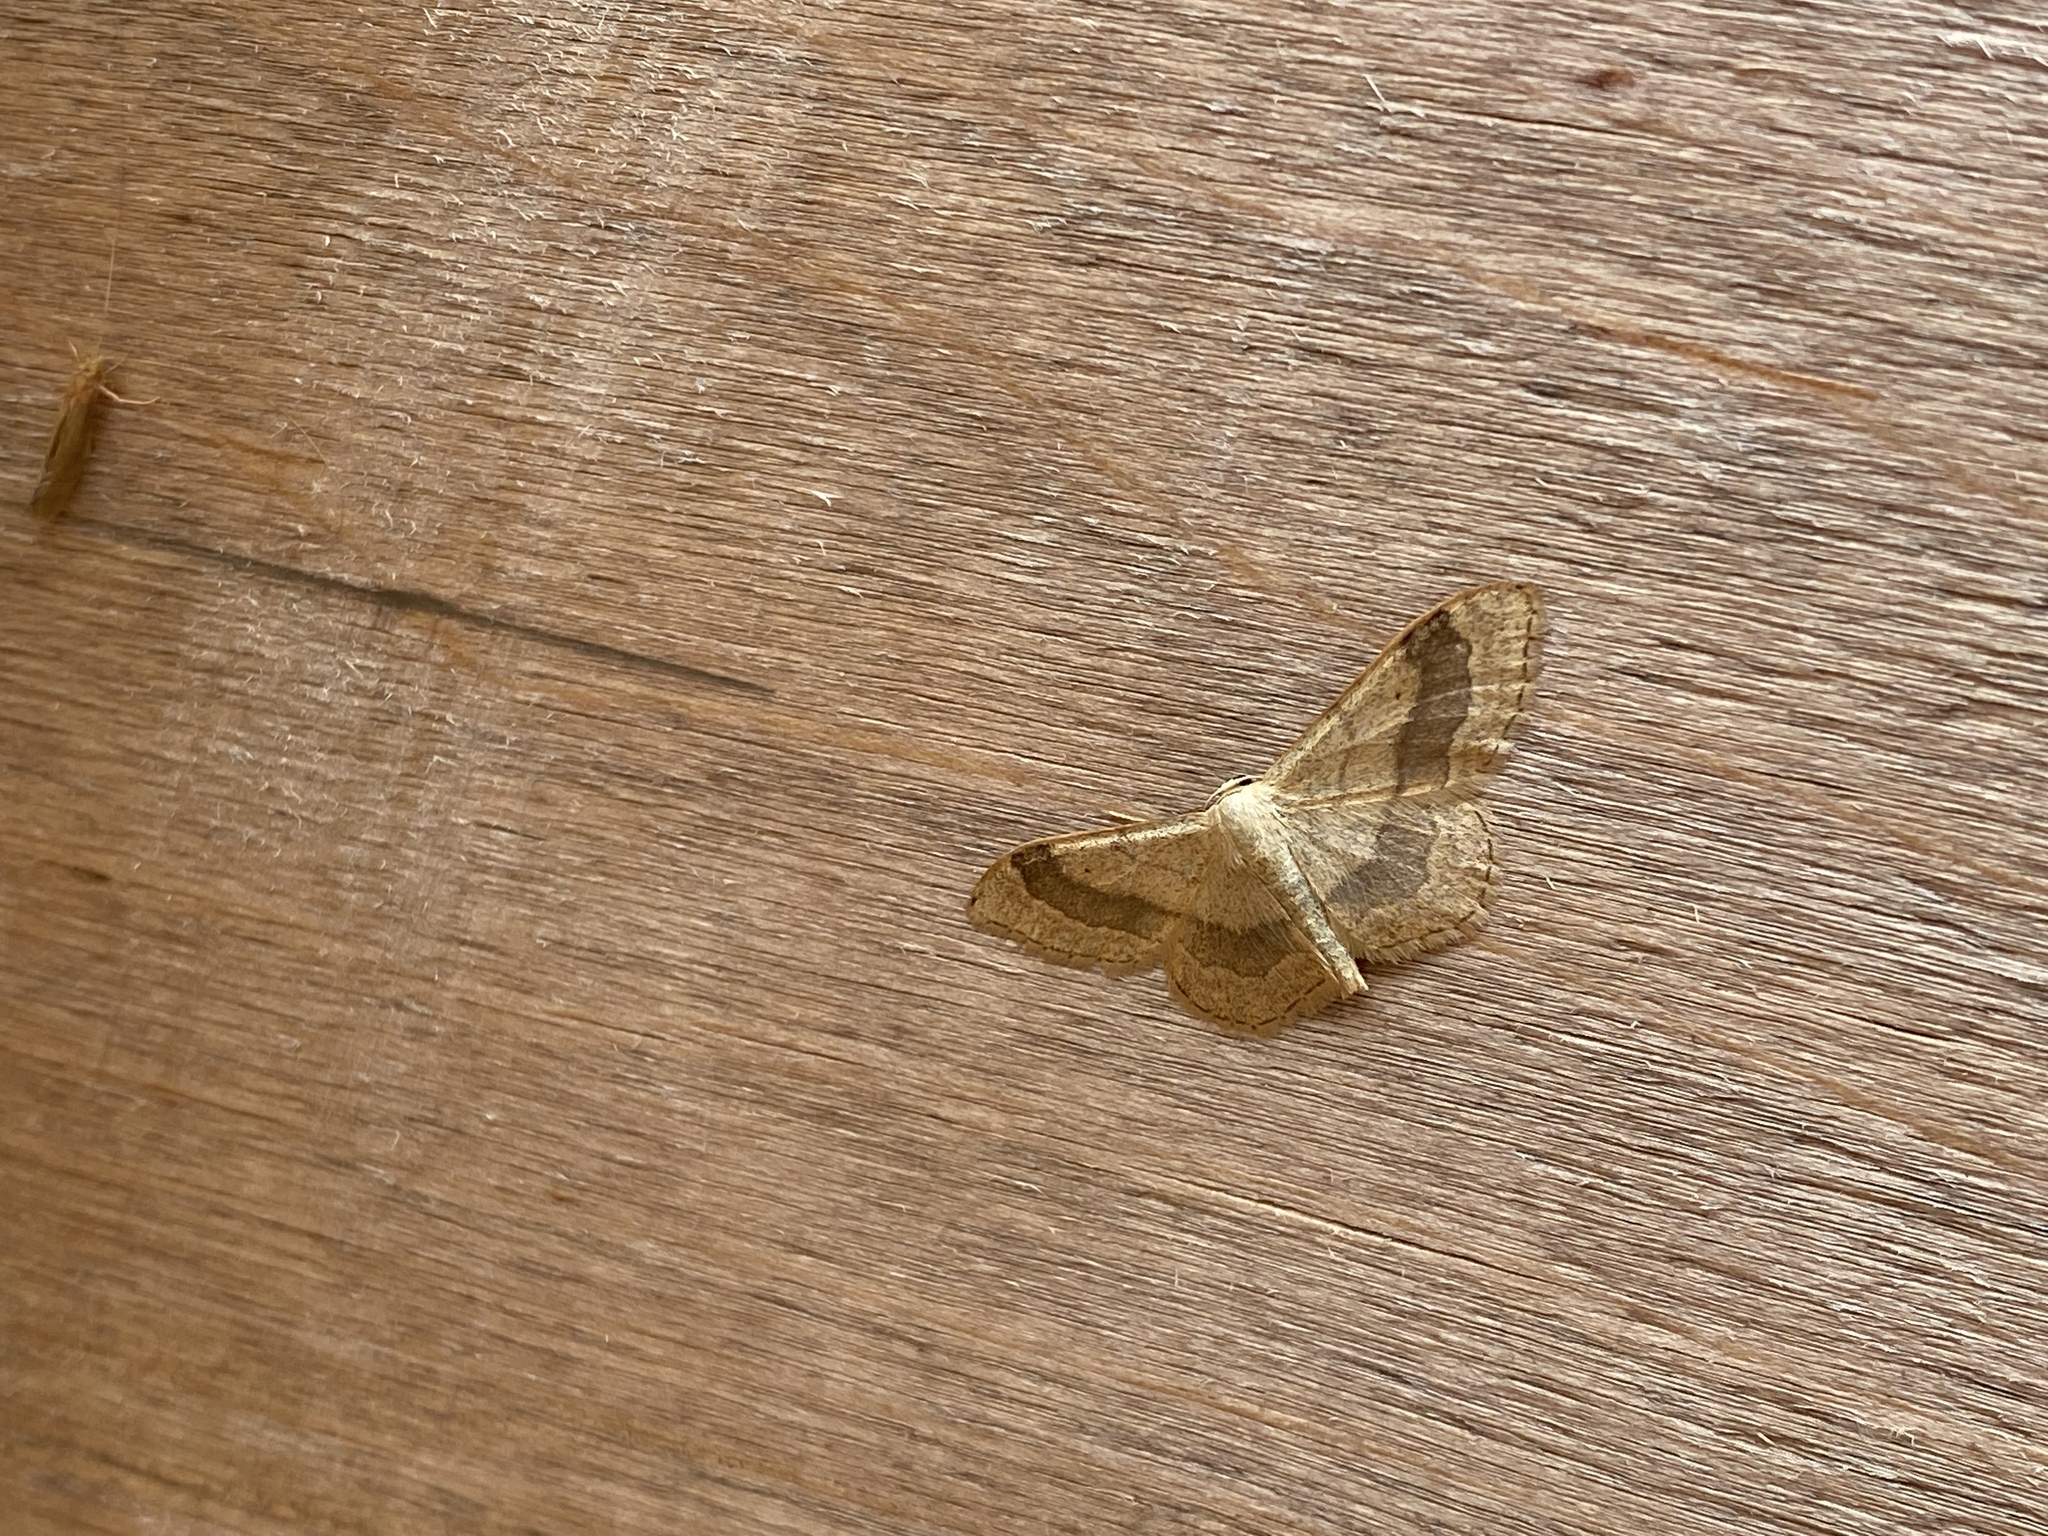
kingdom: Animalia
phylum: Arthropoda
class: Insecta
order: Lepidoptera
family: Geometridae
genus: Idaea
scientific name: Idaea aversata
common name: Riband wave
